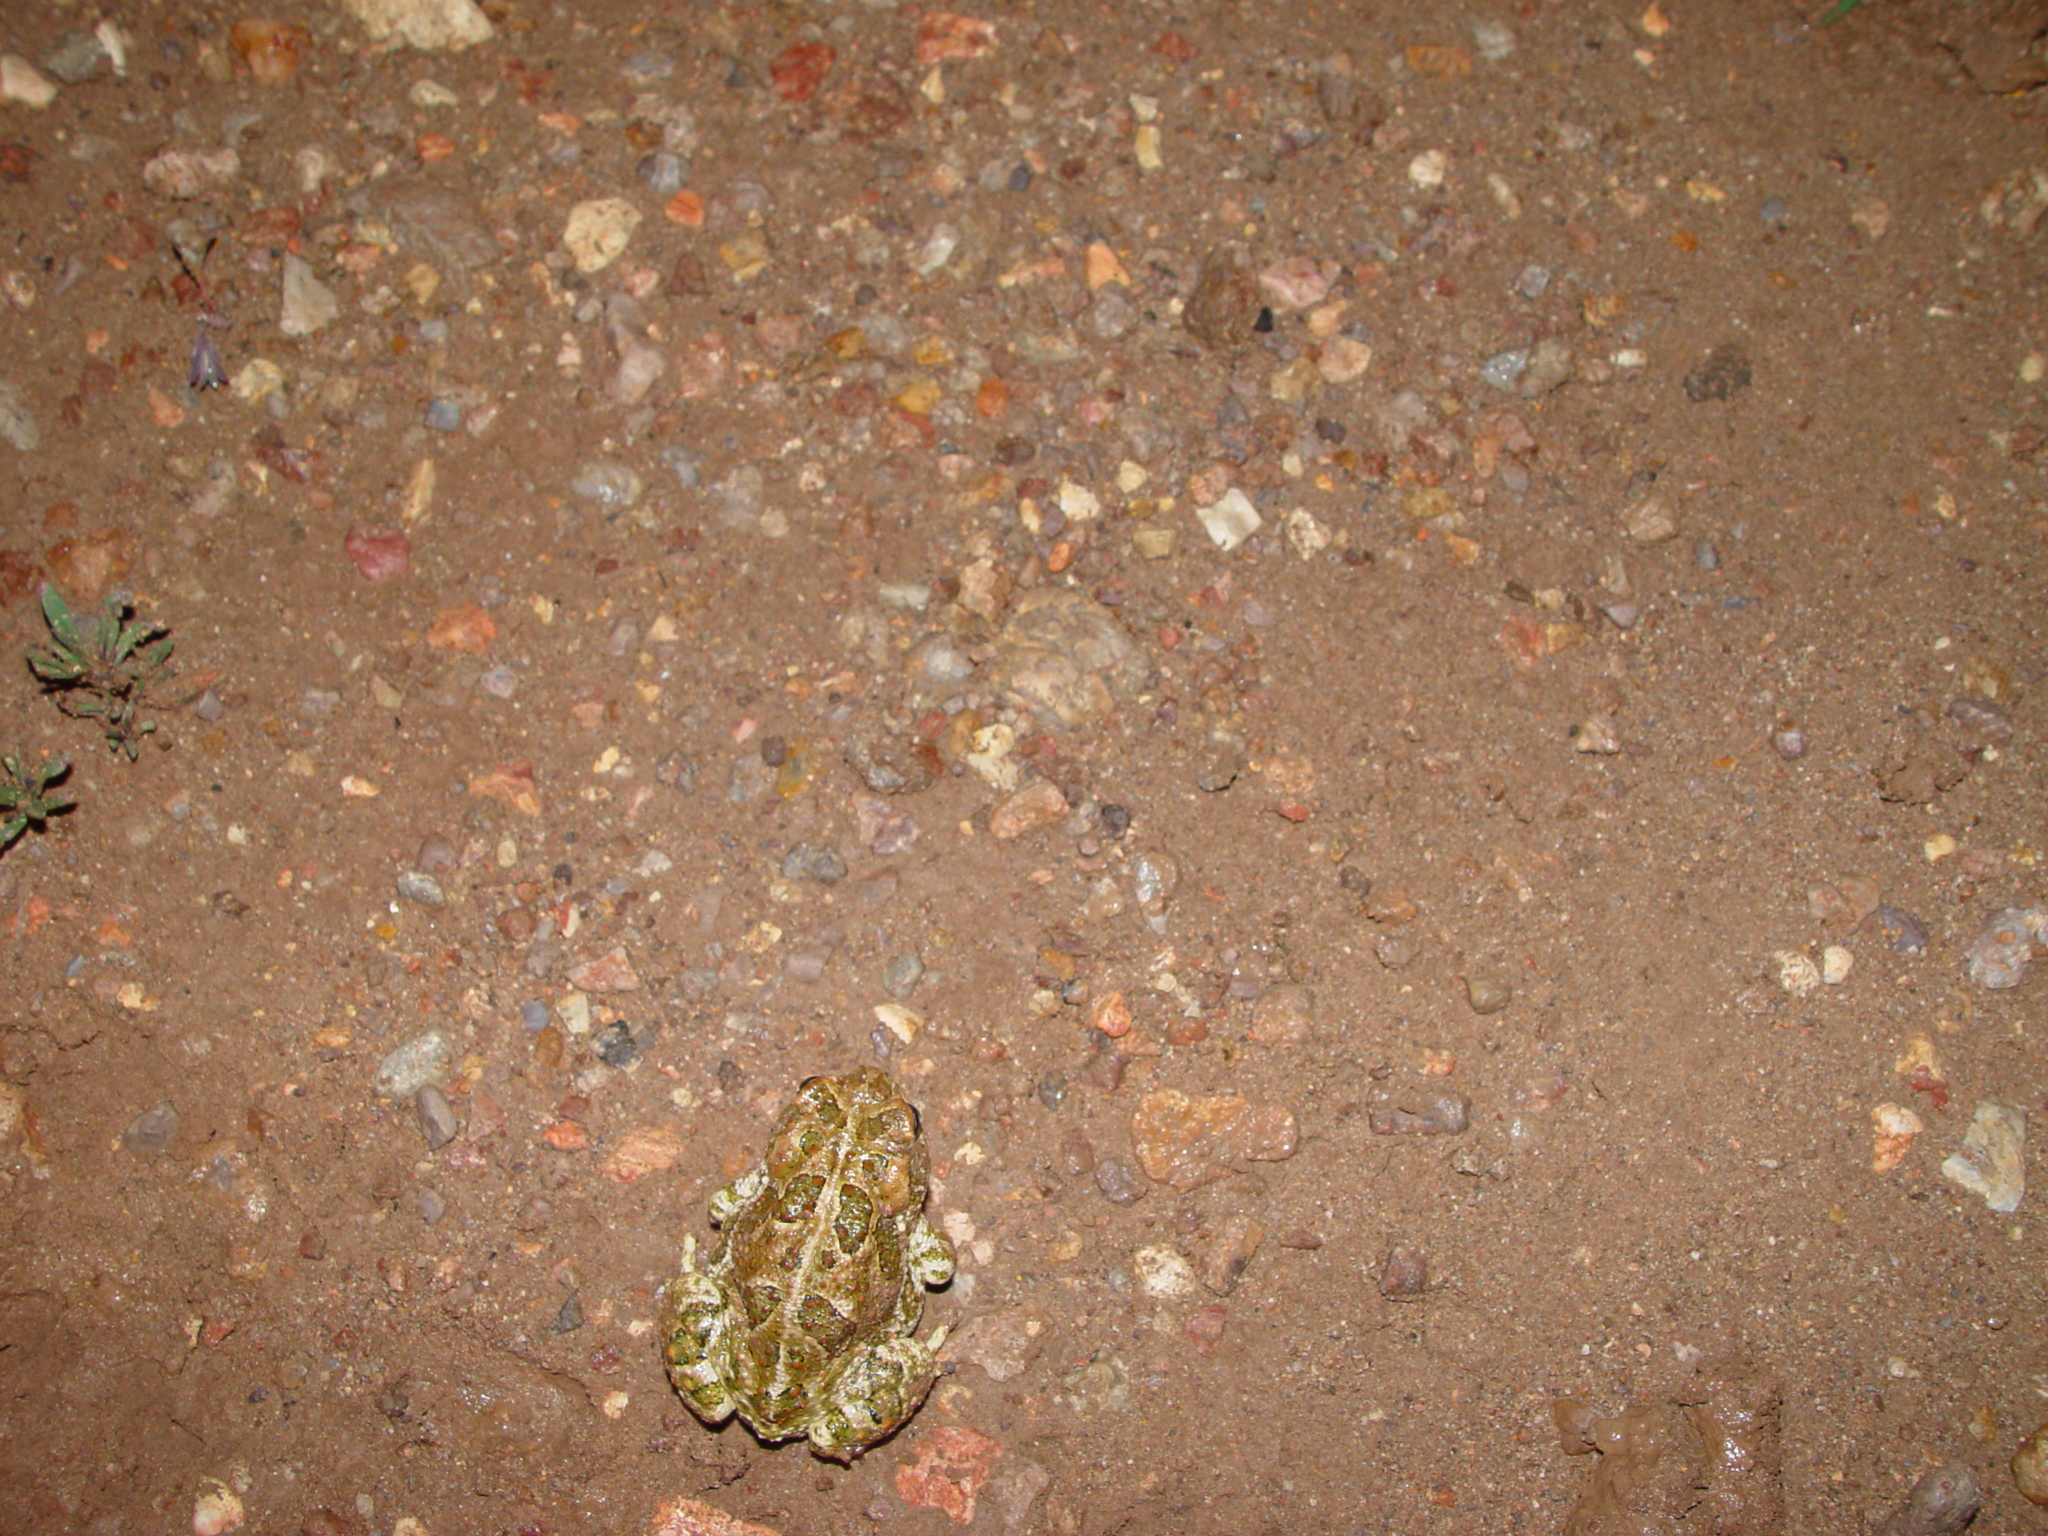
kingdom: Animalia
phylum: Chordata
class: Amphibia
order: Anura
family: Bufonidae
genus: Anaxyrus
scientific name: Anaxyrus cognatus
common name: Great plains toad
